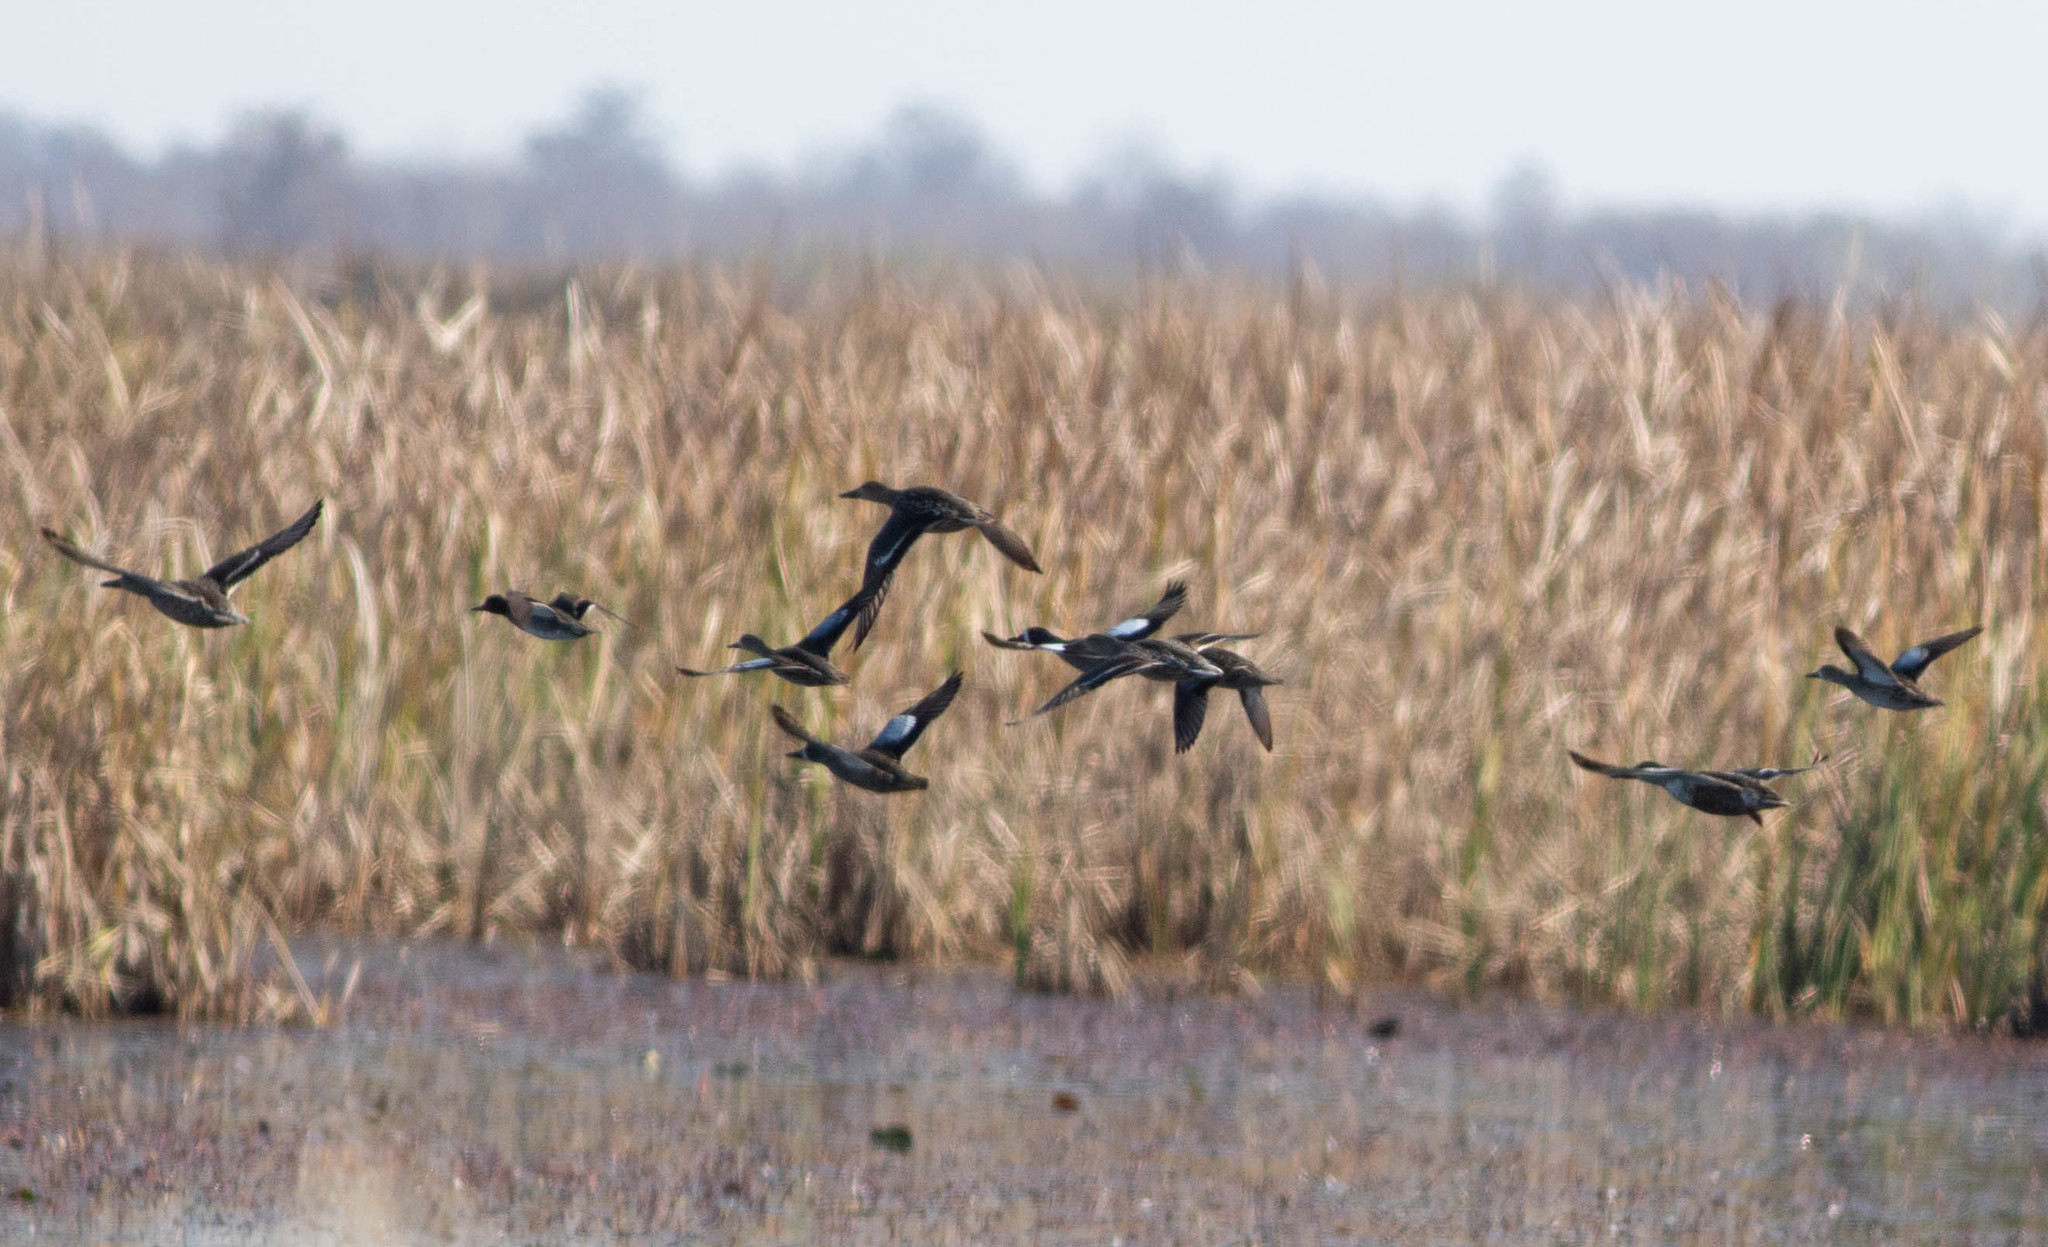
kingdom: Animalia
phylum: Chordata
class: Aves
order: Anseriformes
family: Anatidae
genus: Spatula
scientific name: Spatula discors
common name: Blue-winged teal
